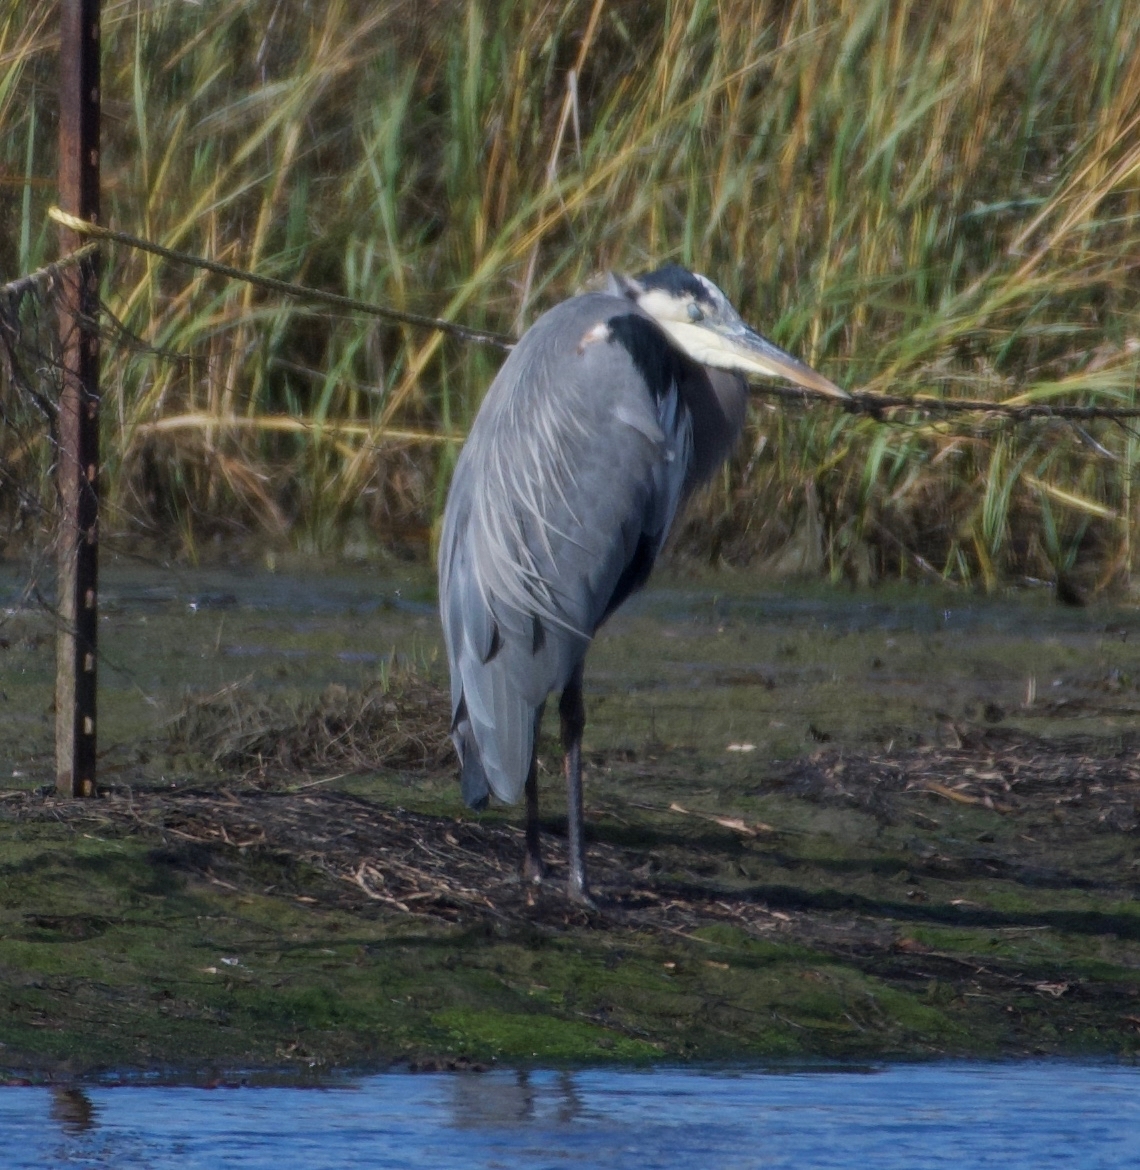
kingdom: Animalia
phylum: Chordata
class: Aves
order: Pelecaniformes
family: Ardeidae
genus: Ardea
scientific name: Ardea herodias
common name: Great blue heron
